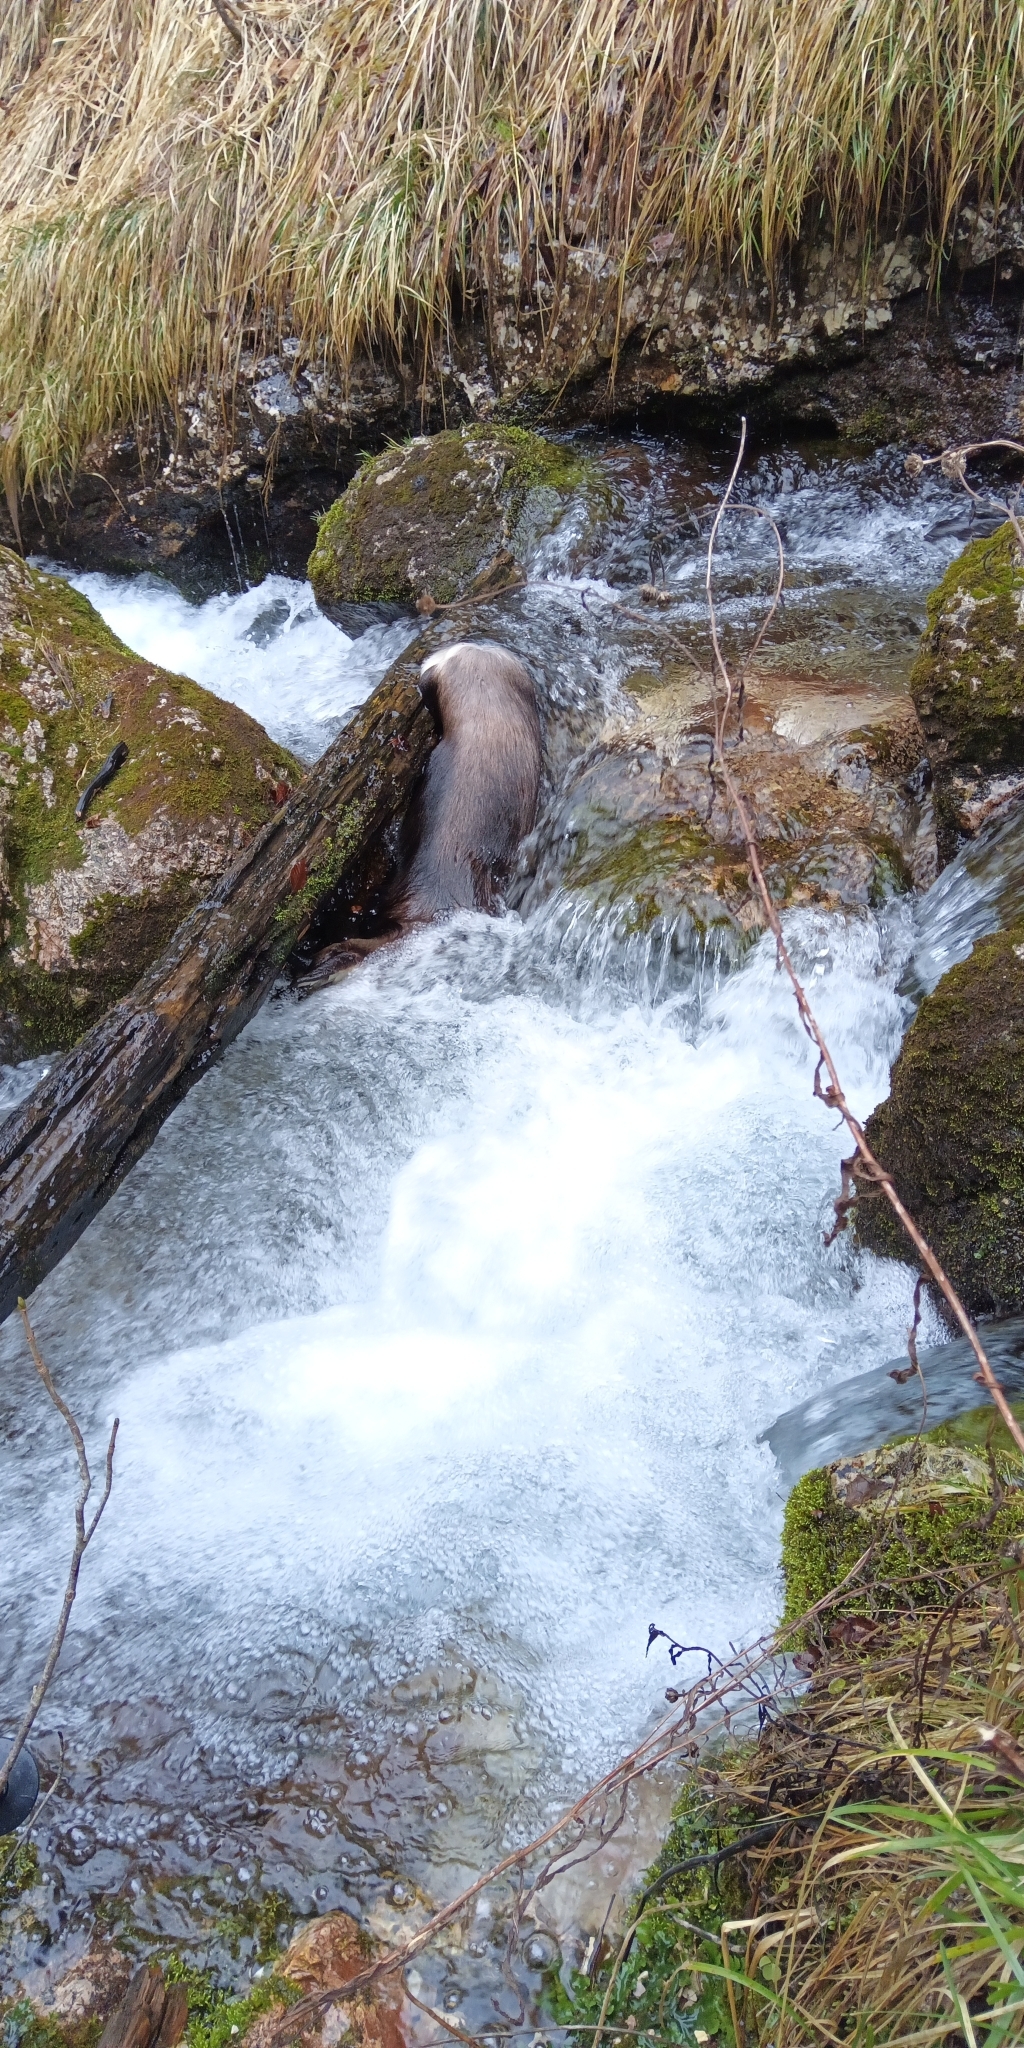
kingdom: Animalia
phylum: Chordata
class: Mammalia
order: Artiodactyla
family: Bovidae
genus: Rupicapra
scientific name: Rupicapra rupicapra
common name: Chamois
